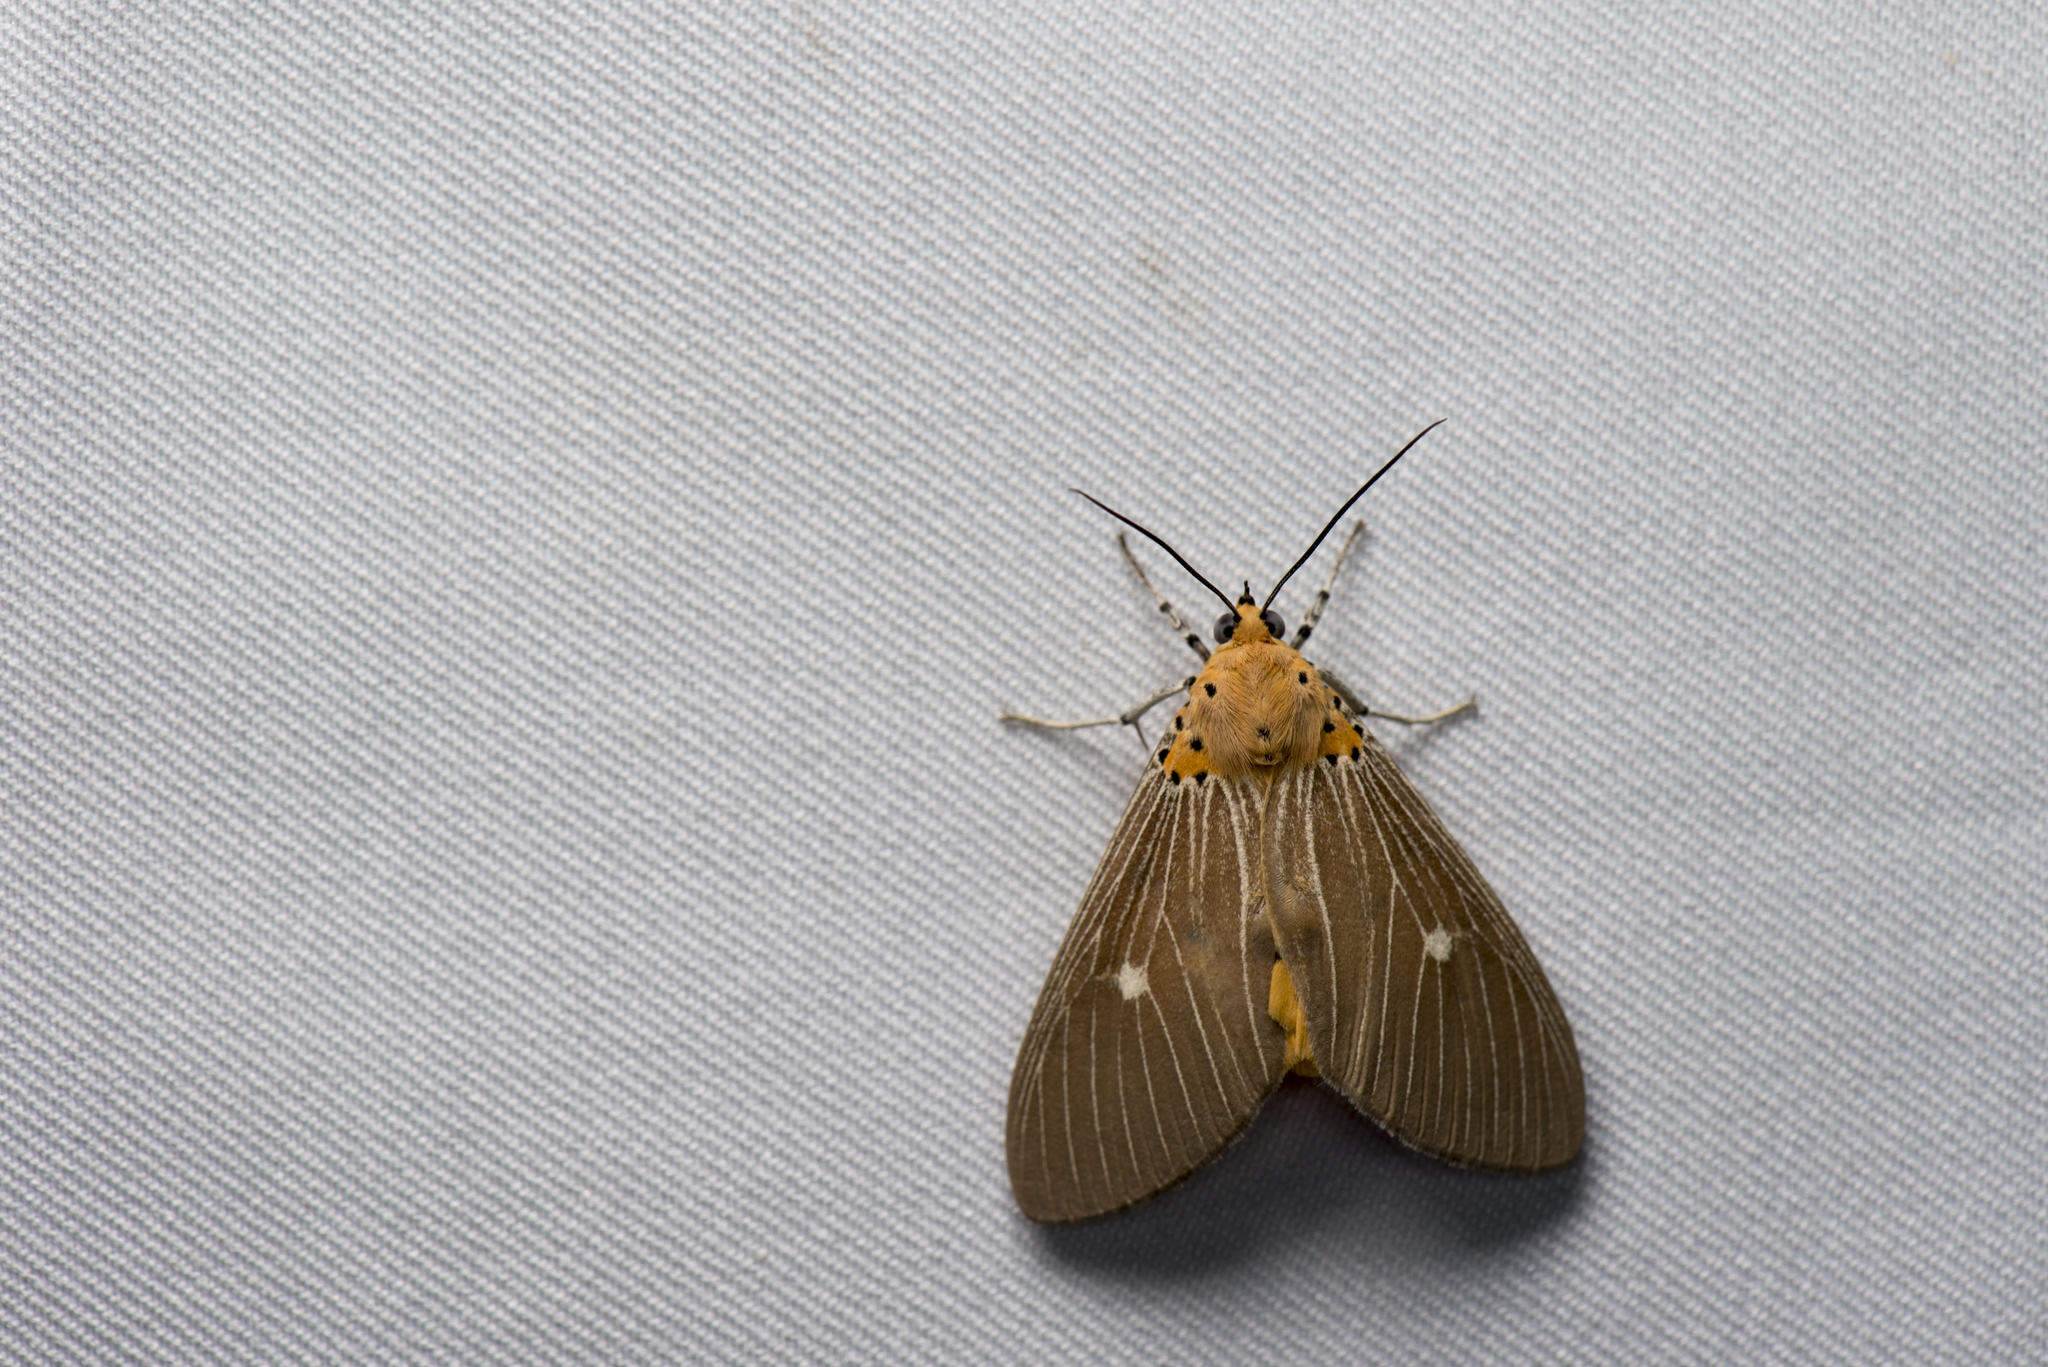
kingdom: Animalia
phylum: Arthropoda
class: Insecta
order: Lepidoptera
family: Erebidae
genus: Asota
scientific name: Asota caricae
